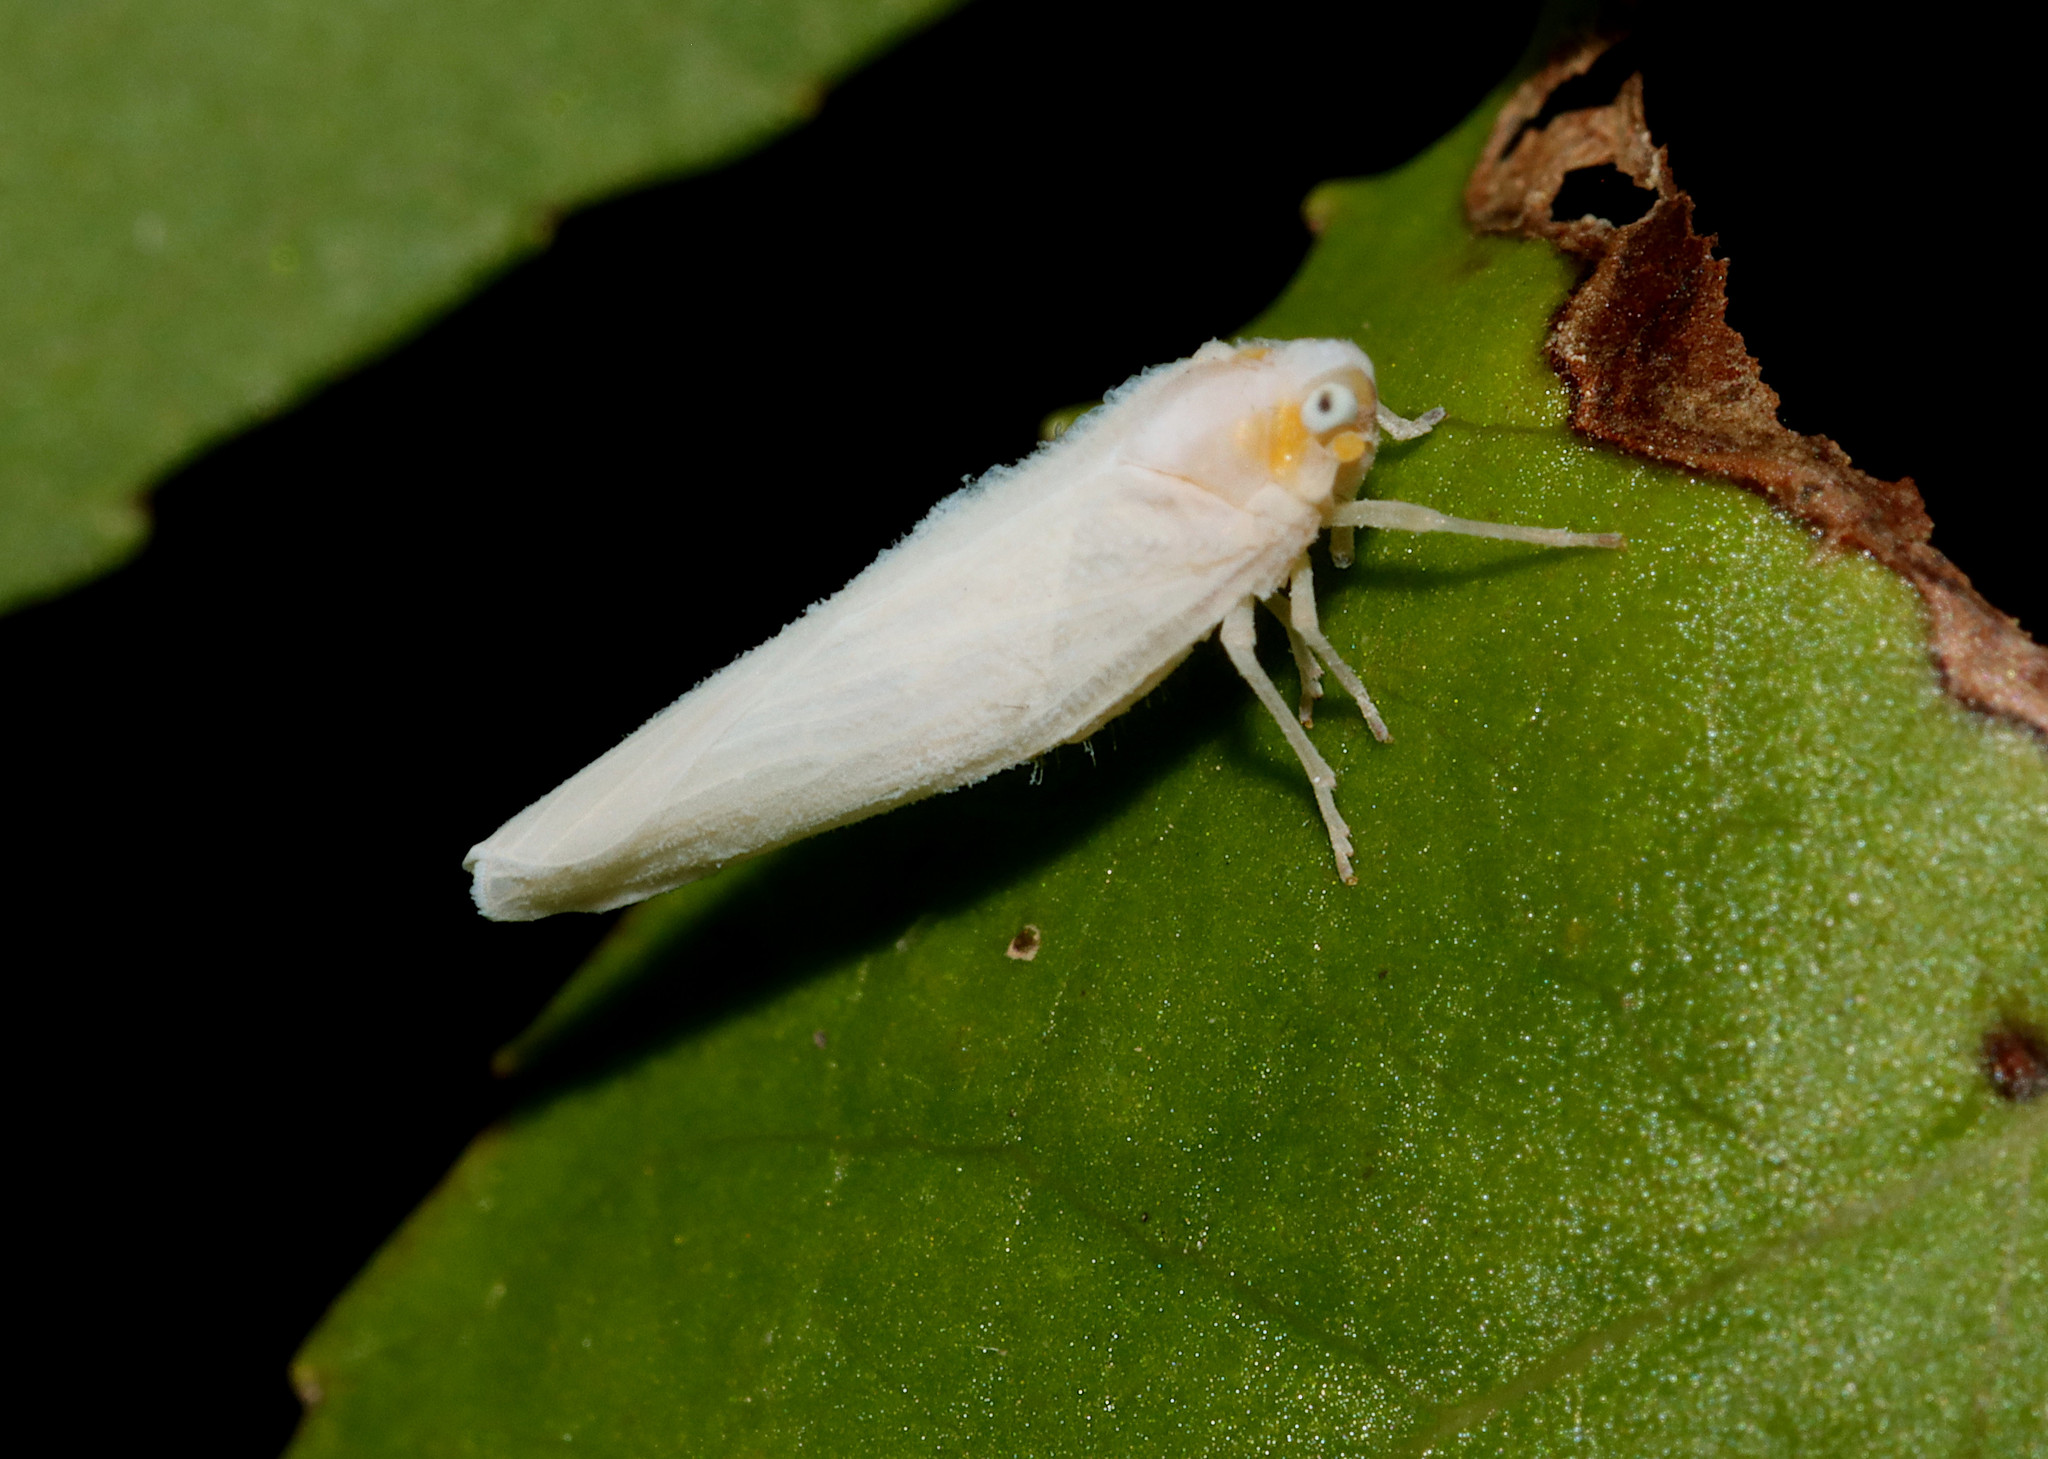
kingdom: Animalia
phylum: Arthropoda
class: Insecta
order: Hemiptera
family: Derbidae
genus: Neocenchrea
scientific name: Neocenchrea heidemanni
